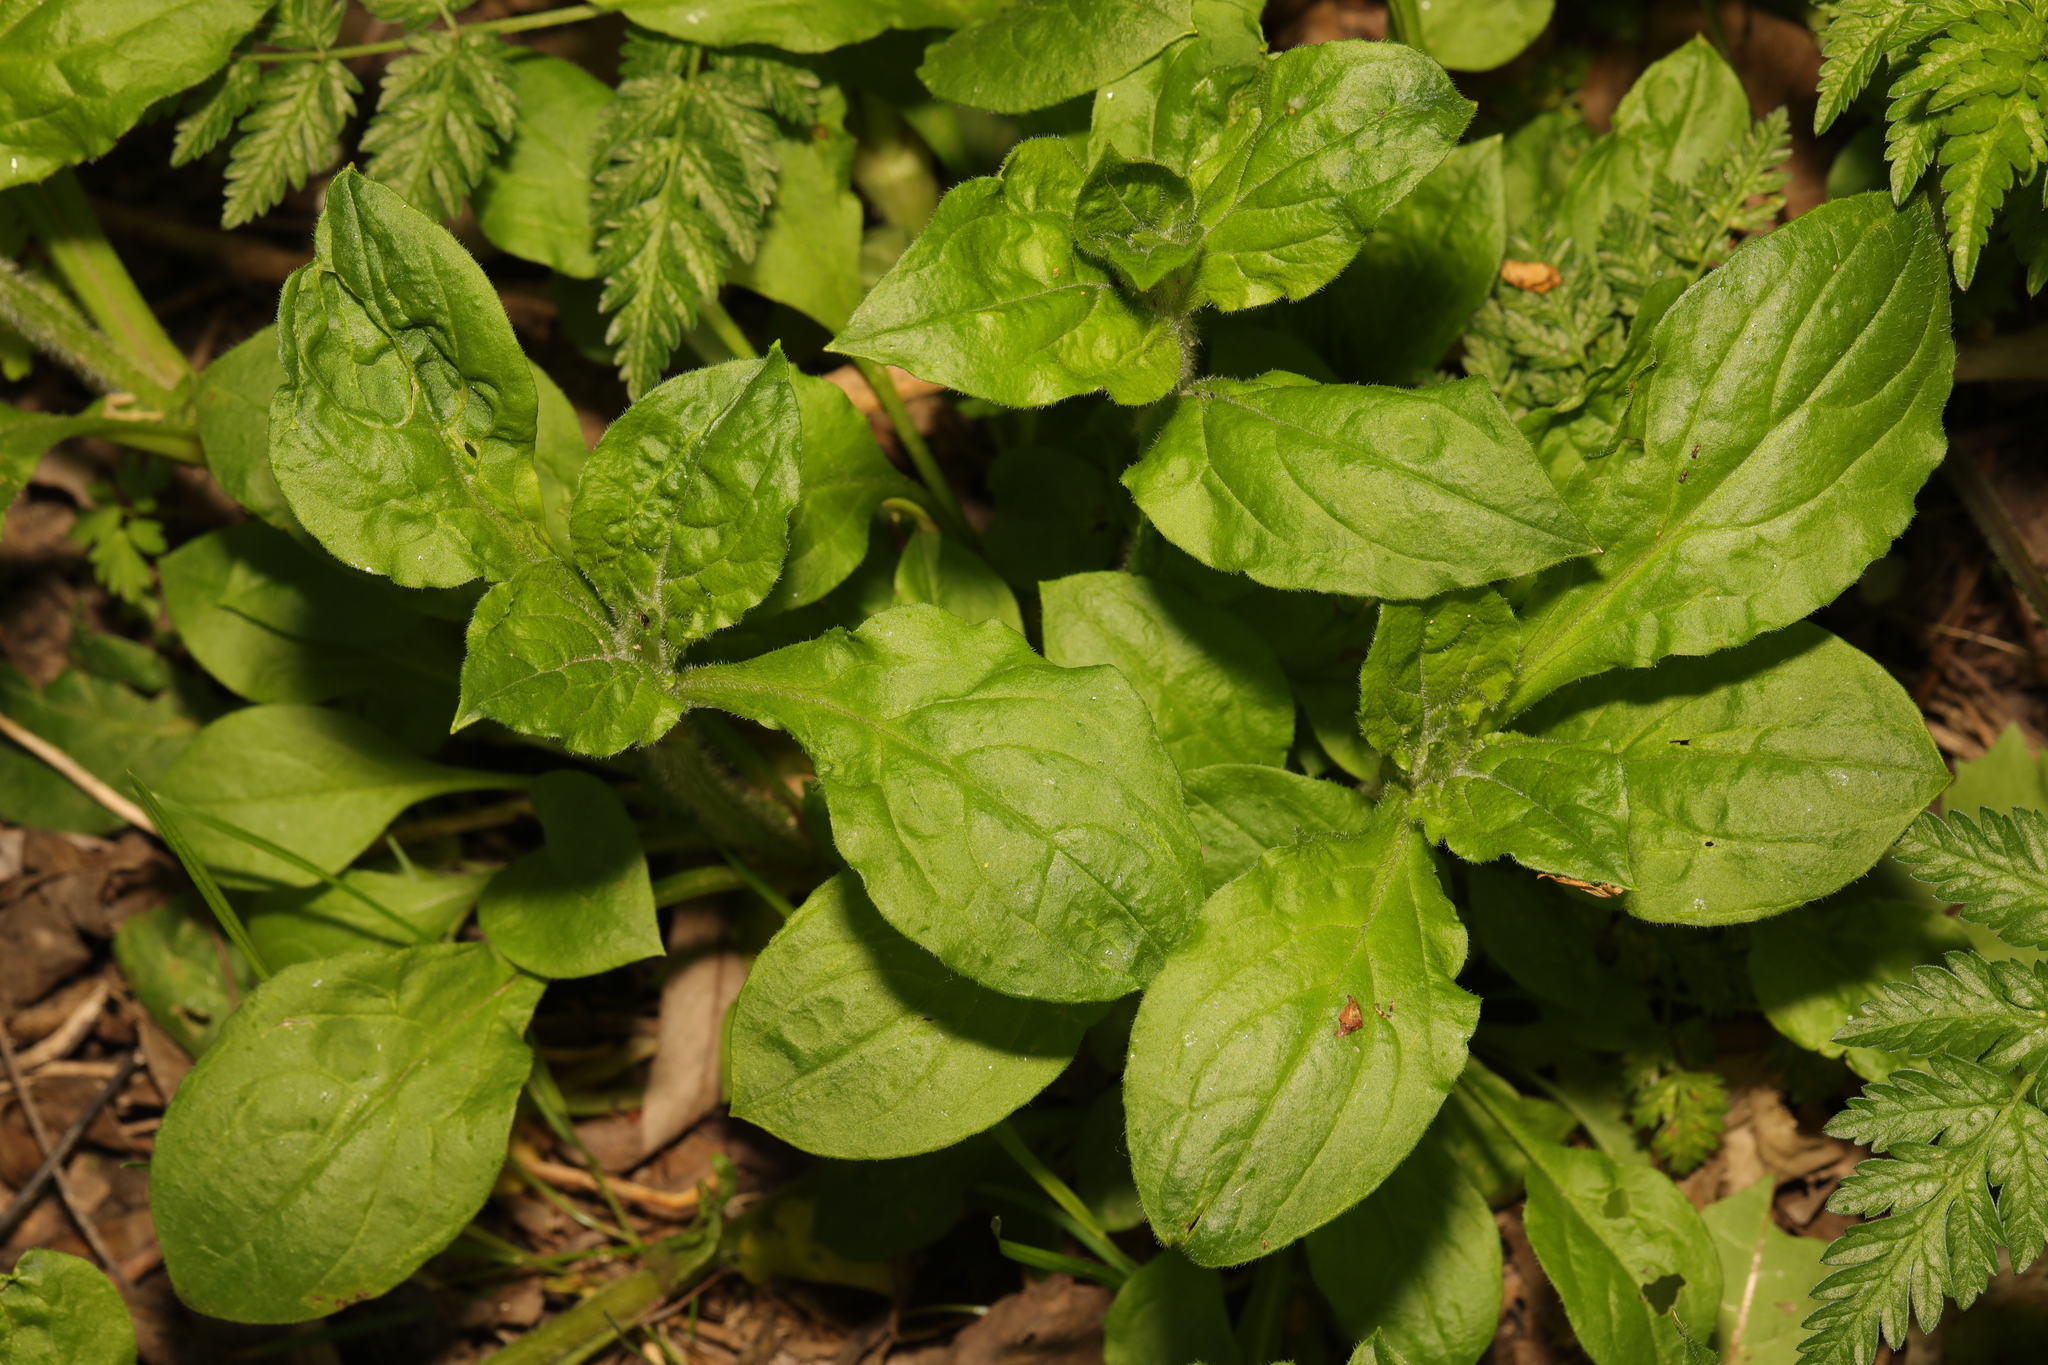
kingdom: Plantae
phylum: Tracheophyta
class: Magnoliopsida
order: Caryophyllales
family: Caryophyllaceae
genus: Silene
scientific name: Silene dioica
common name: Red campion
